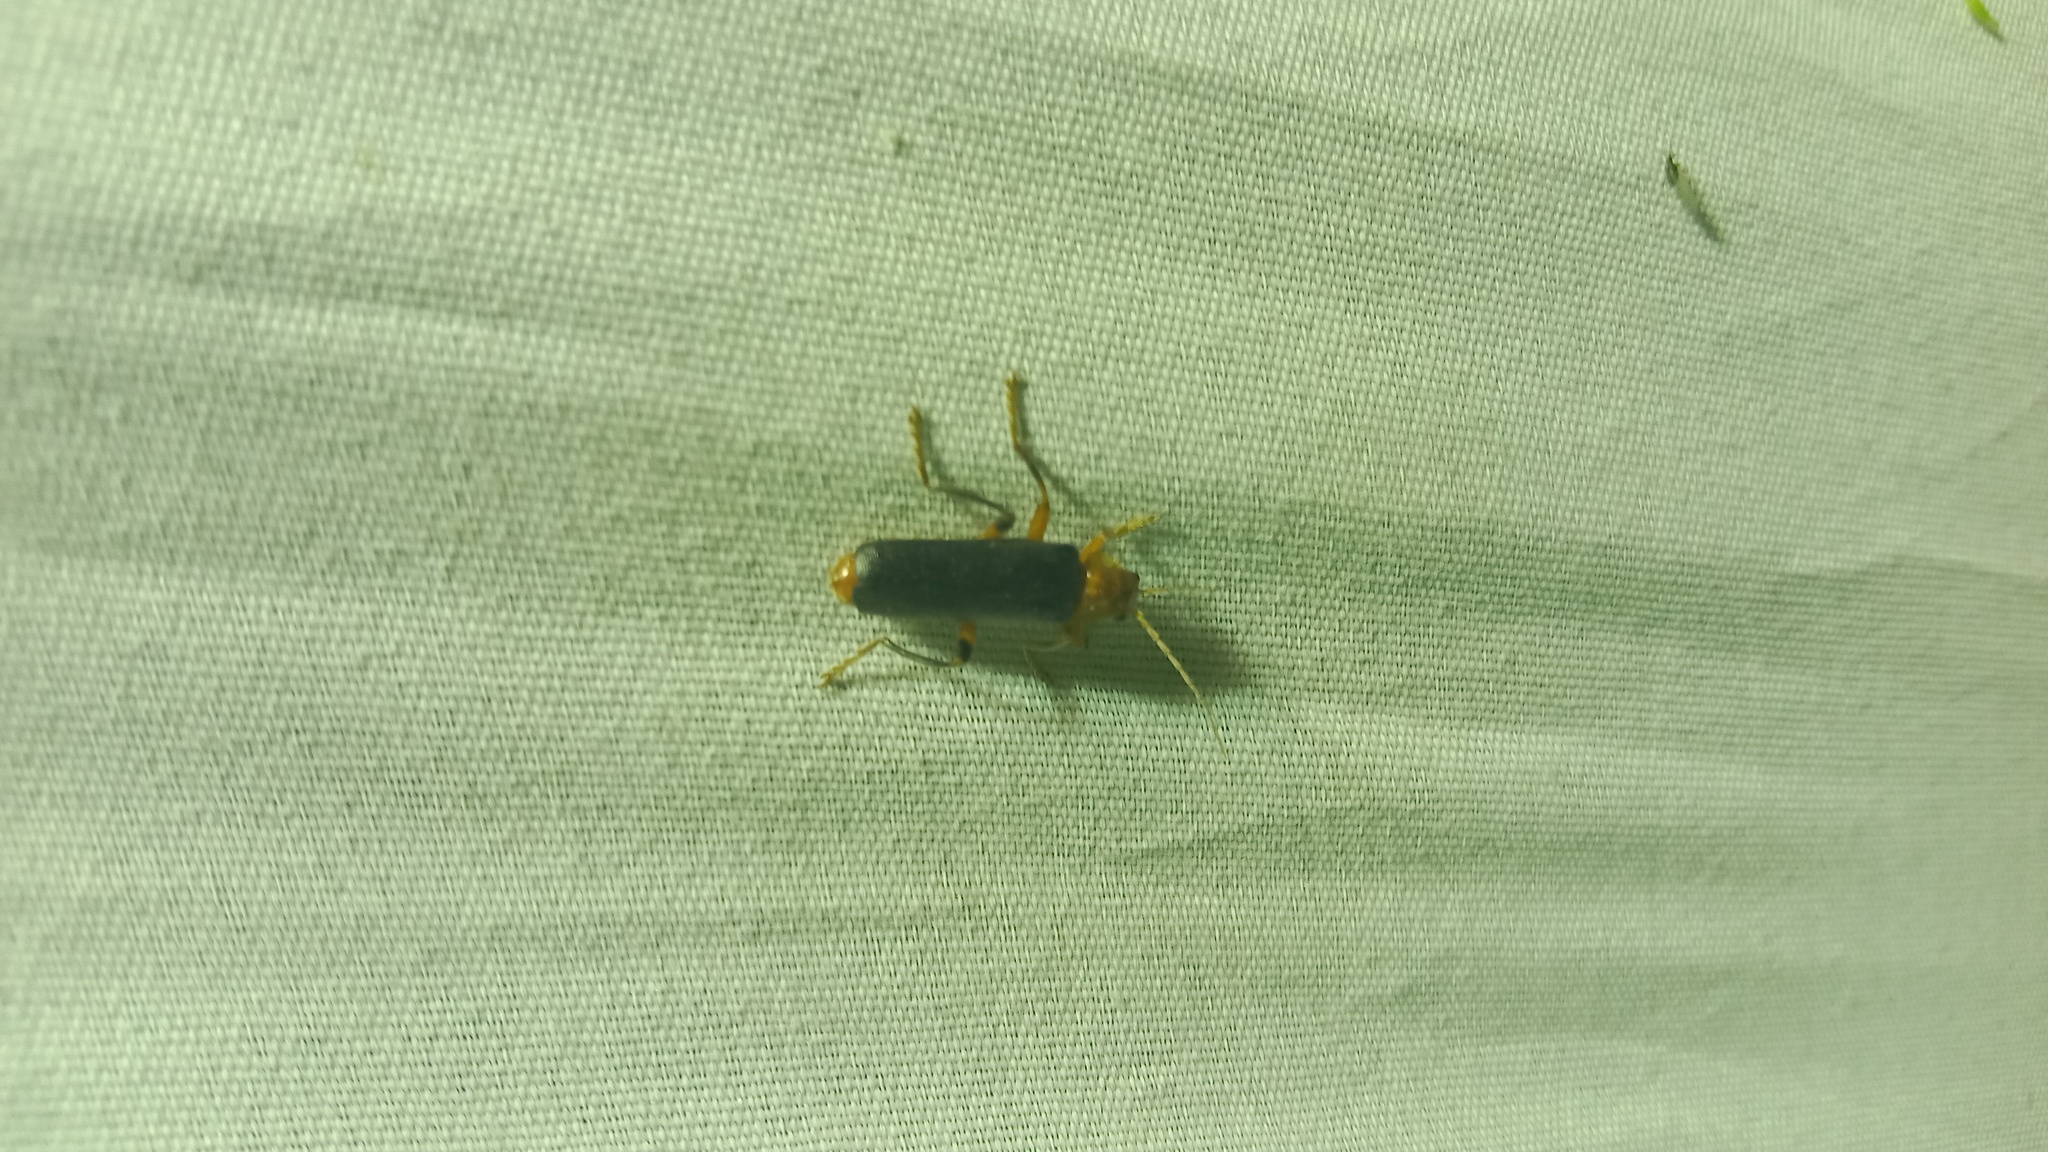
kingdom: Animalia
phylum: Arthropoda
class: Insecta
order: Coleoptera
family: Cantharidae
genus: Cantharis
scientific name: Cantharis livida
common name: Livid soldier beetle
